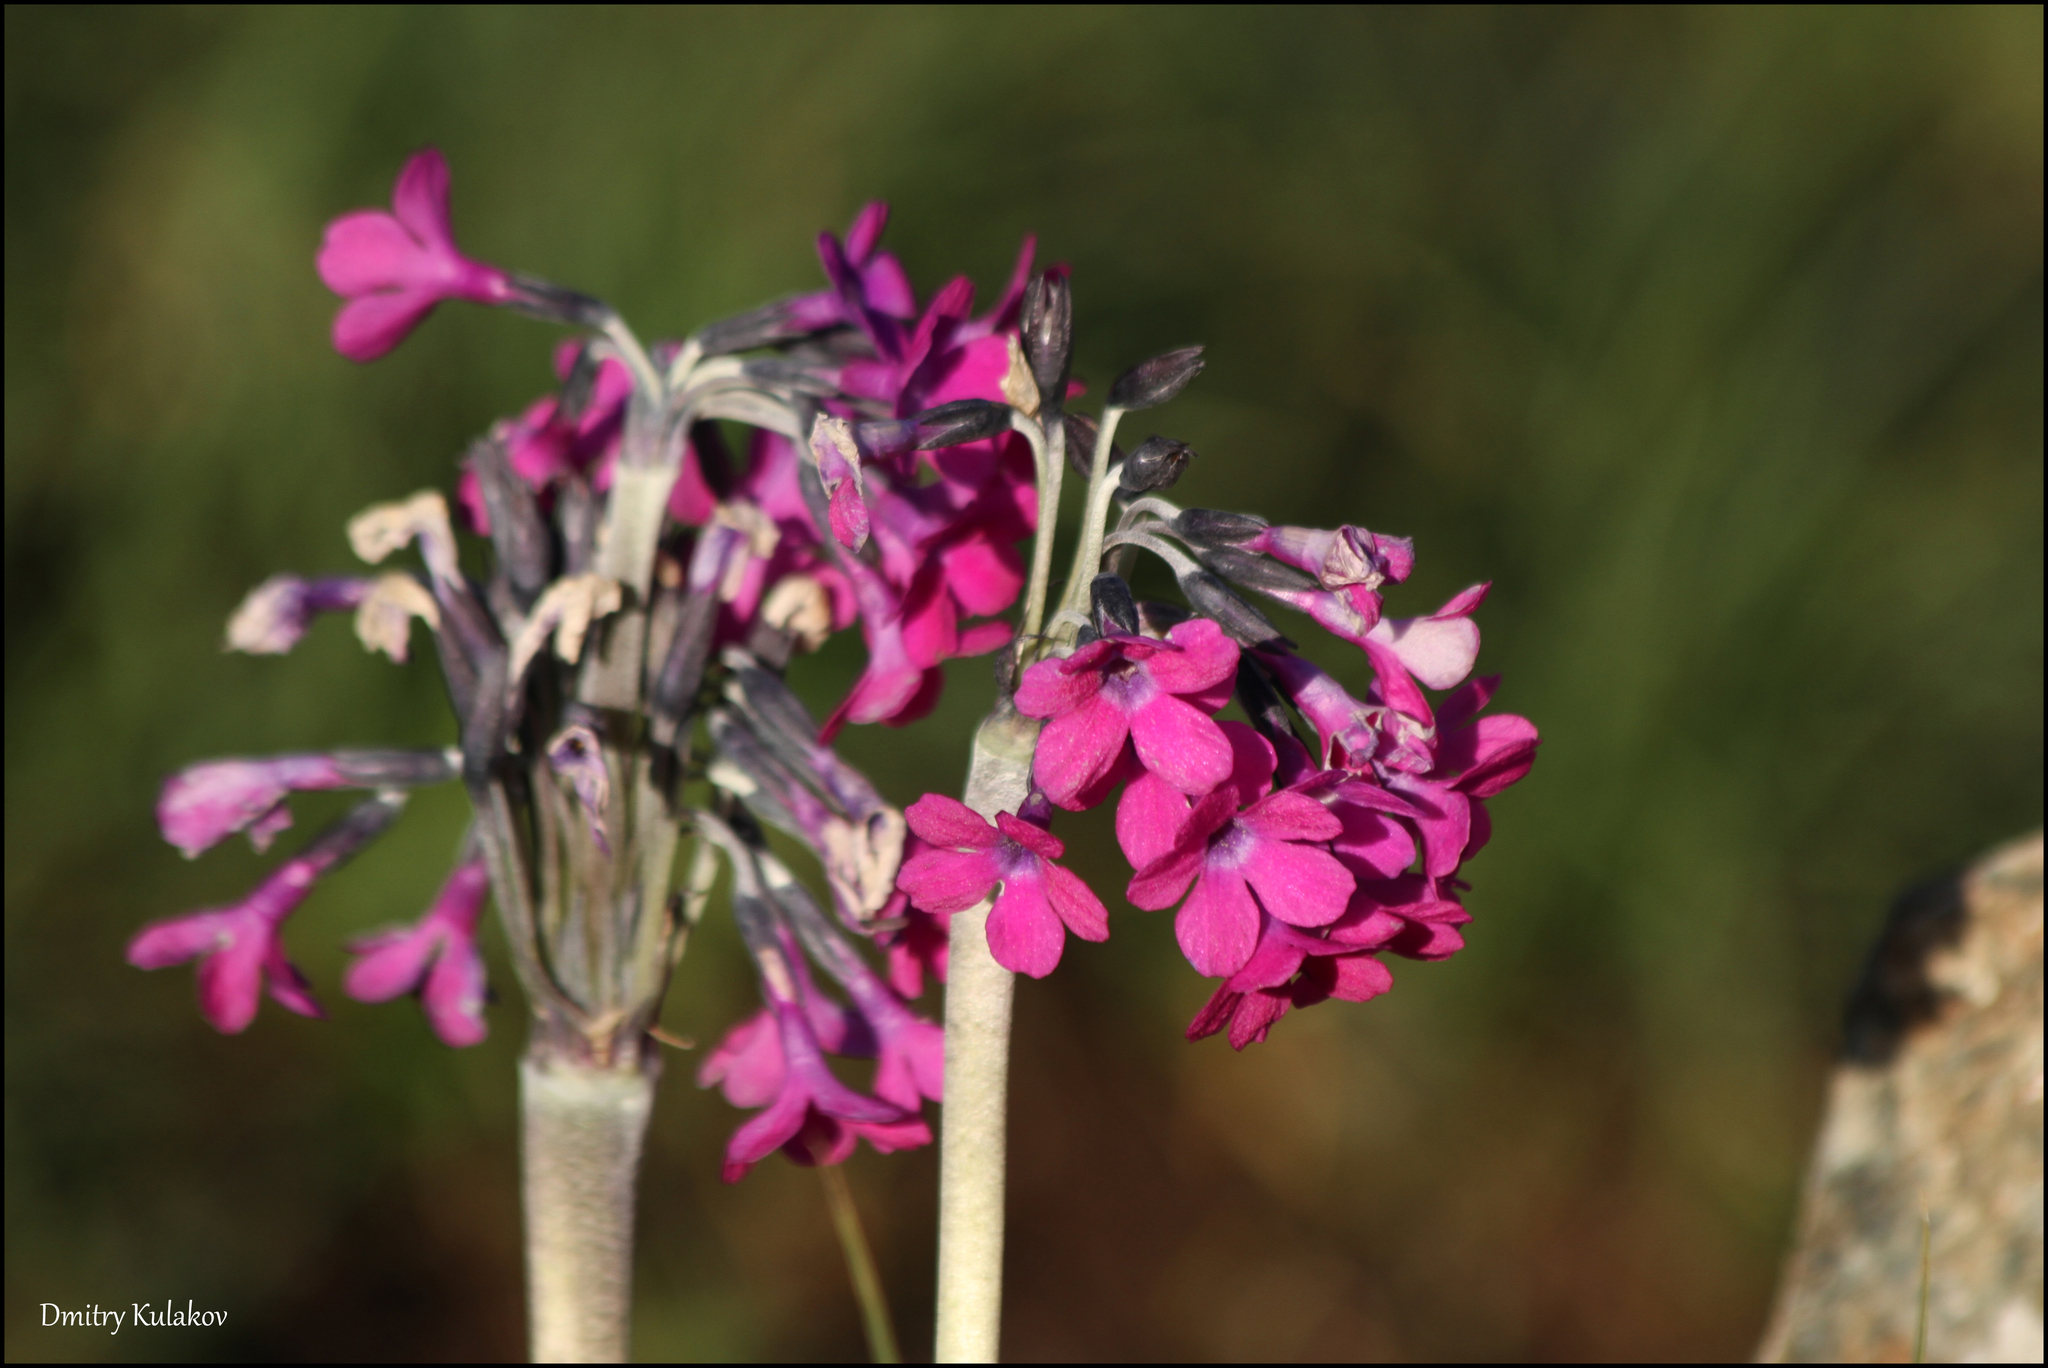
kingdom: Plantae
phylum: Tracheophyta
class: Magnoliopsida
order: Ericales
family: Primulaceae
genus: Primula
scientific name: Primula nivalis
